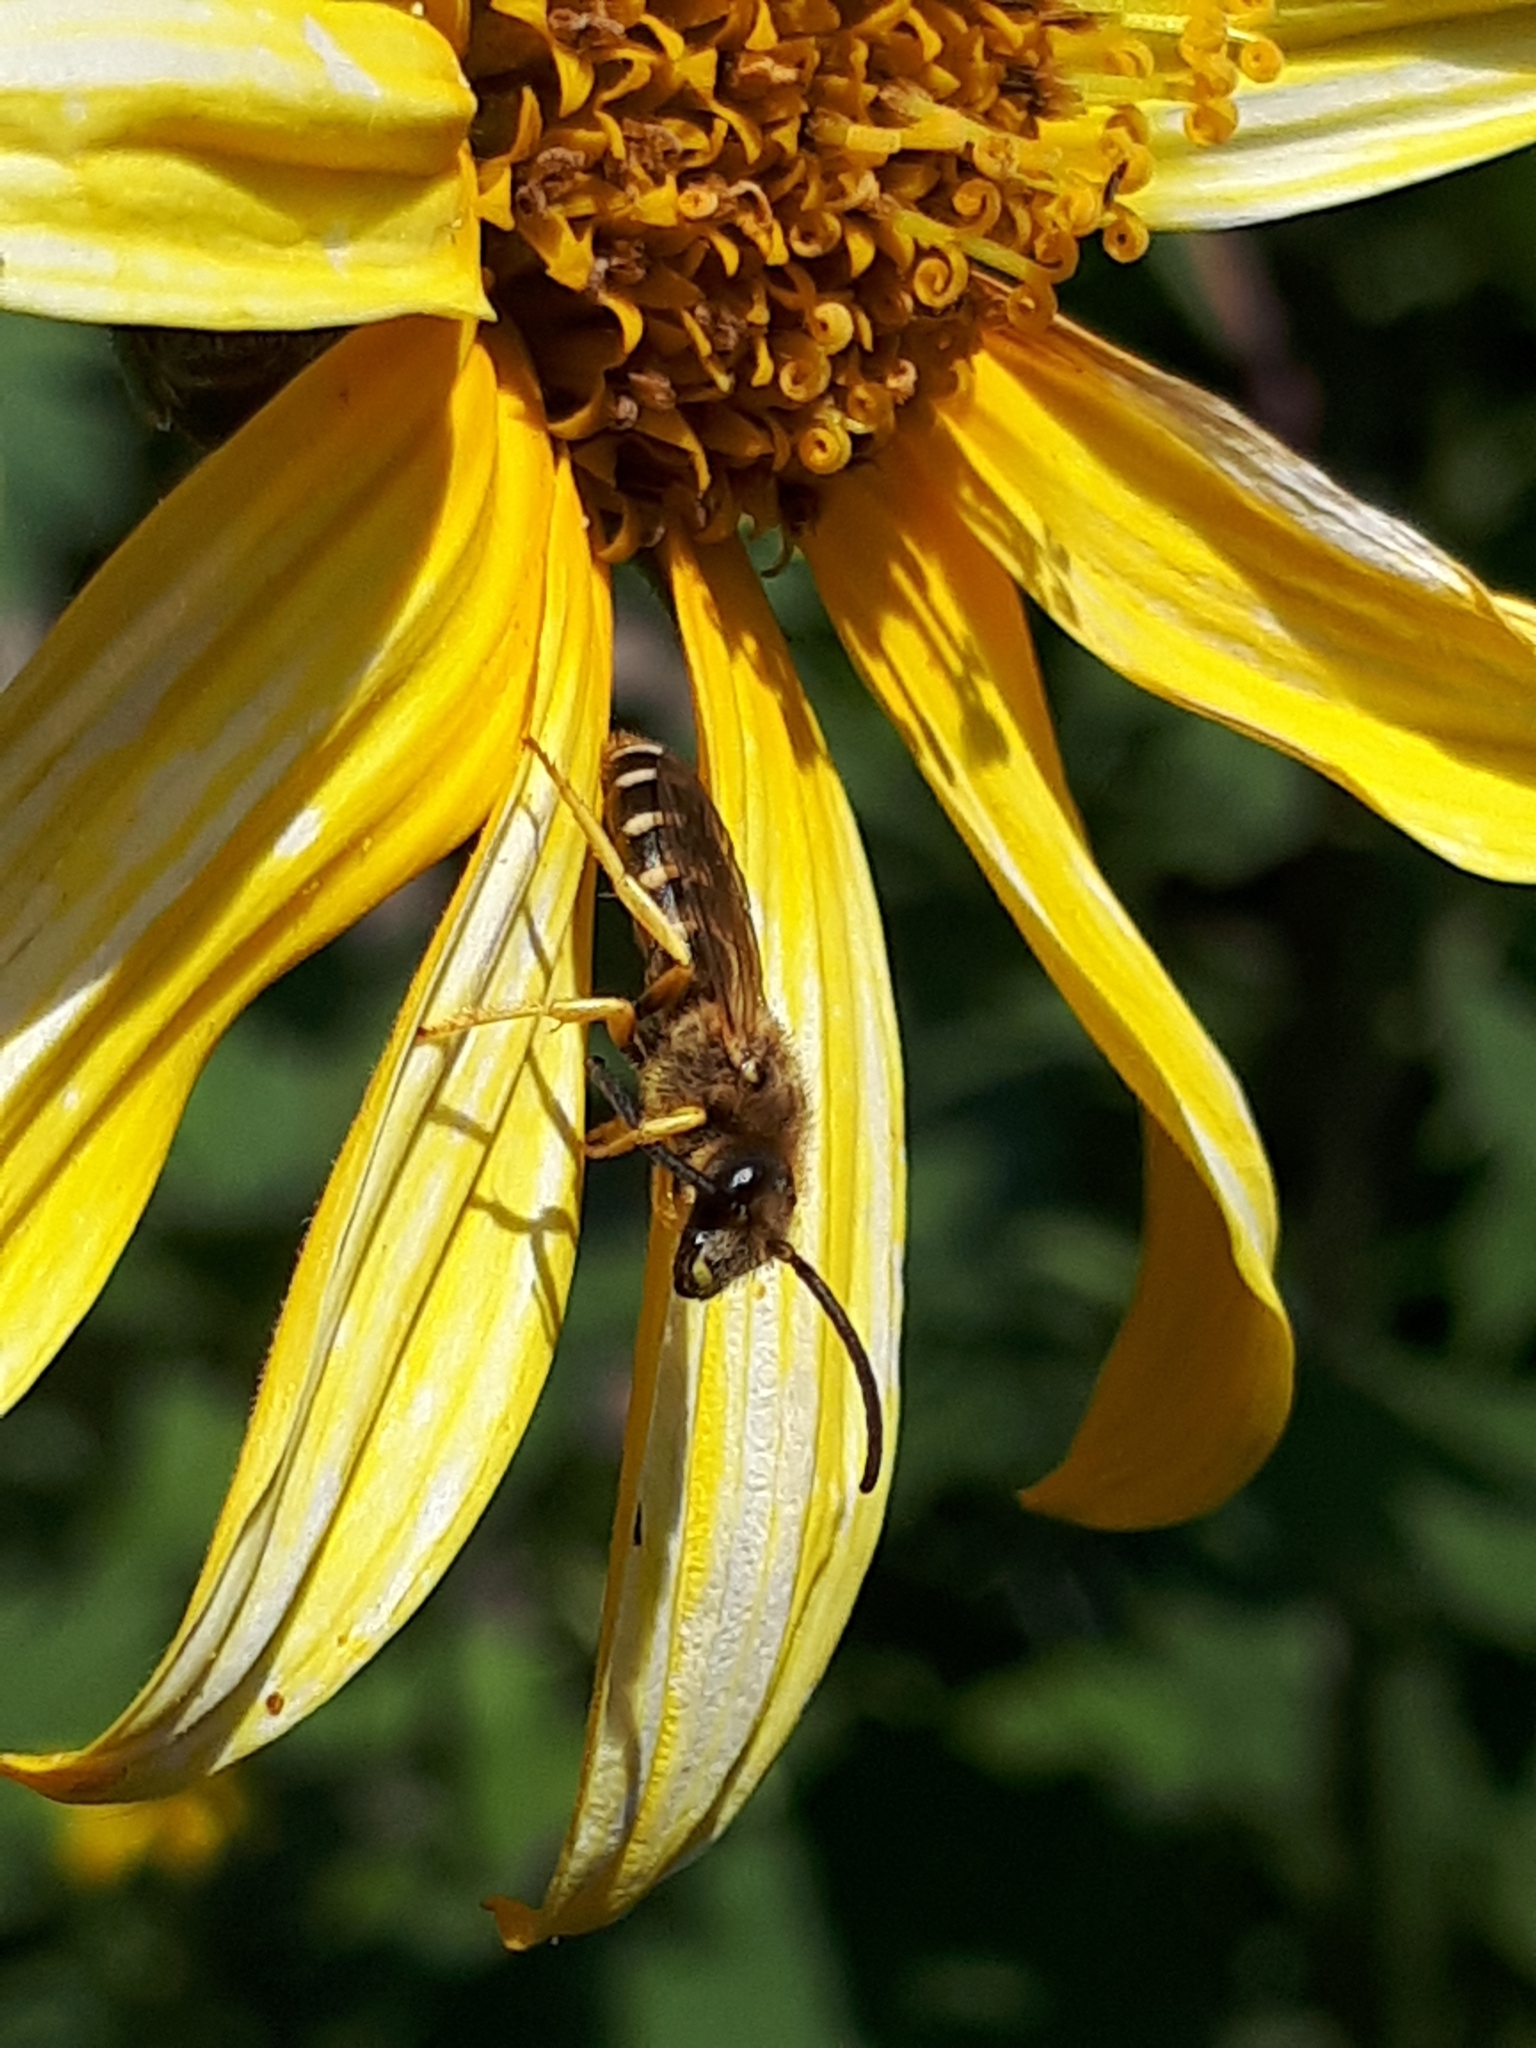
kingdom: Animalia
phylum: Arthropoda
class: Insecta
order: Hymenoptera
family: Halictidae
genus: Halictus
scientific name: Halictus scabiosae
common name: Great banded furrow bee
